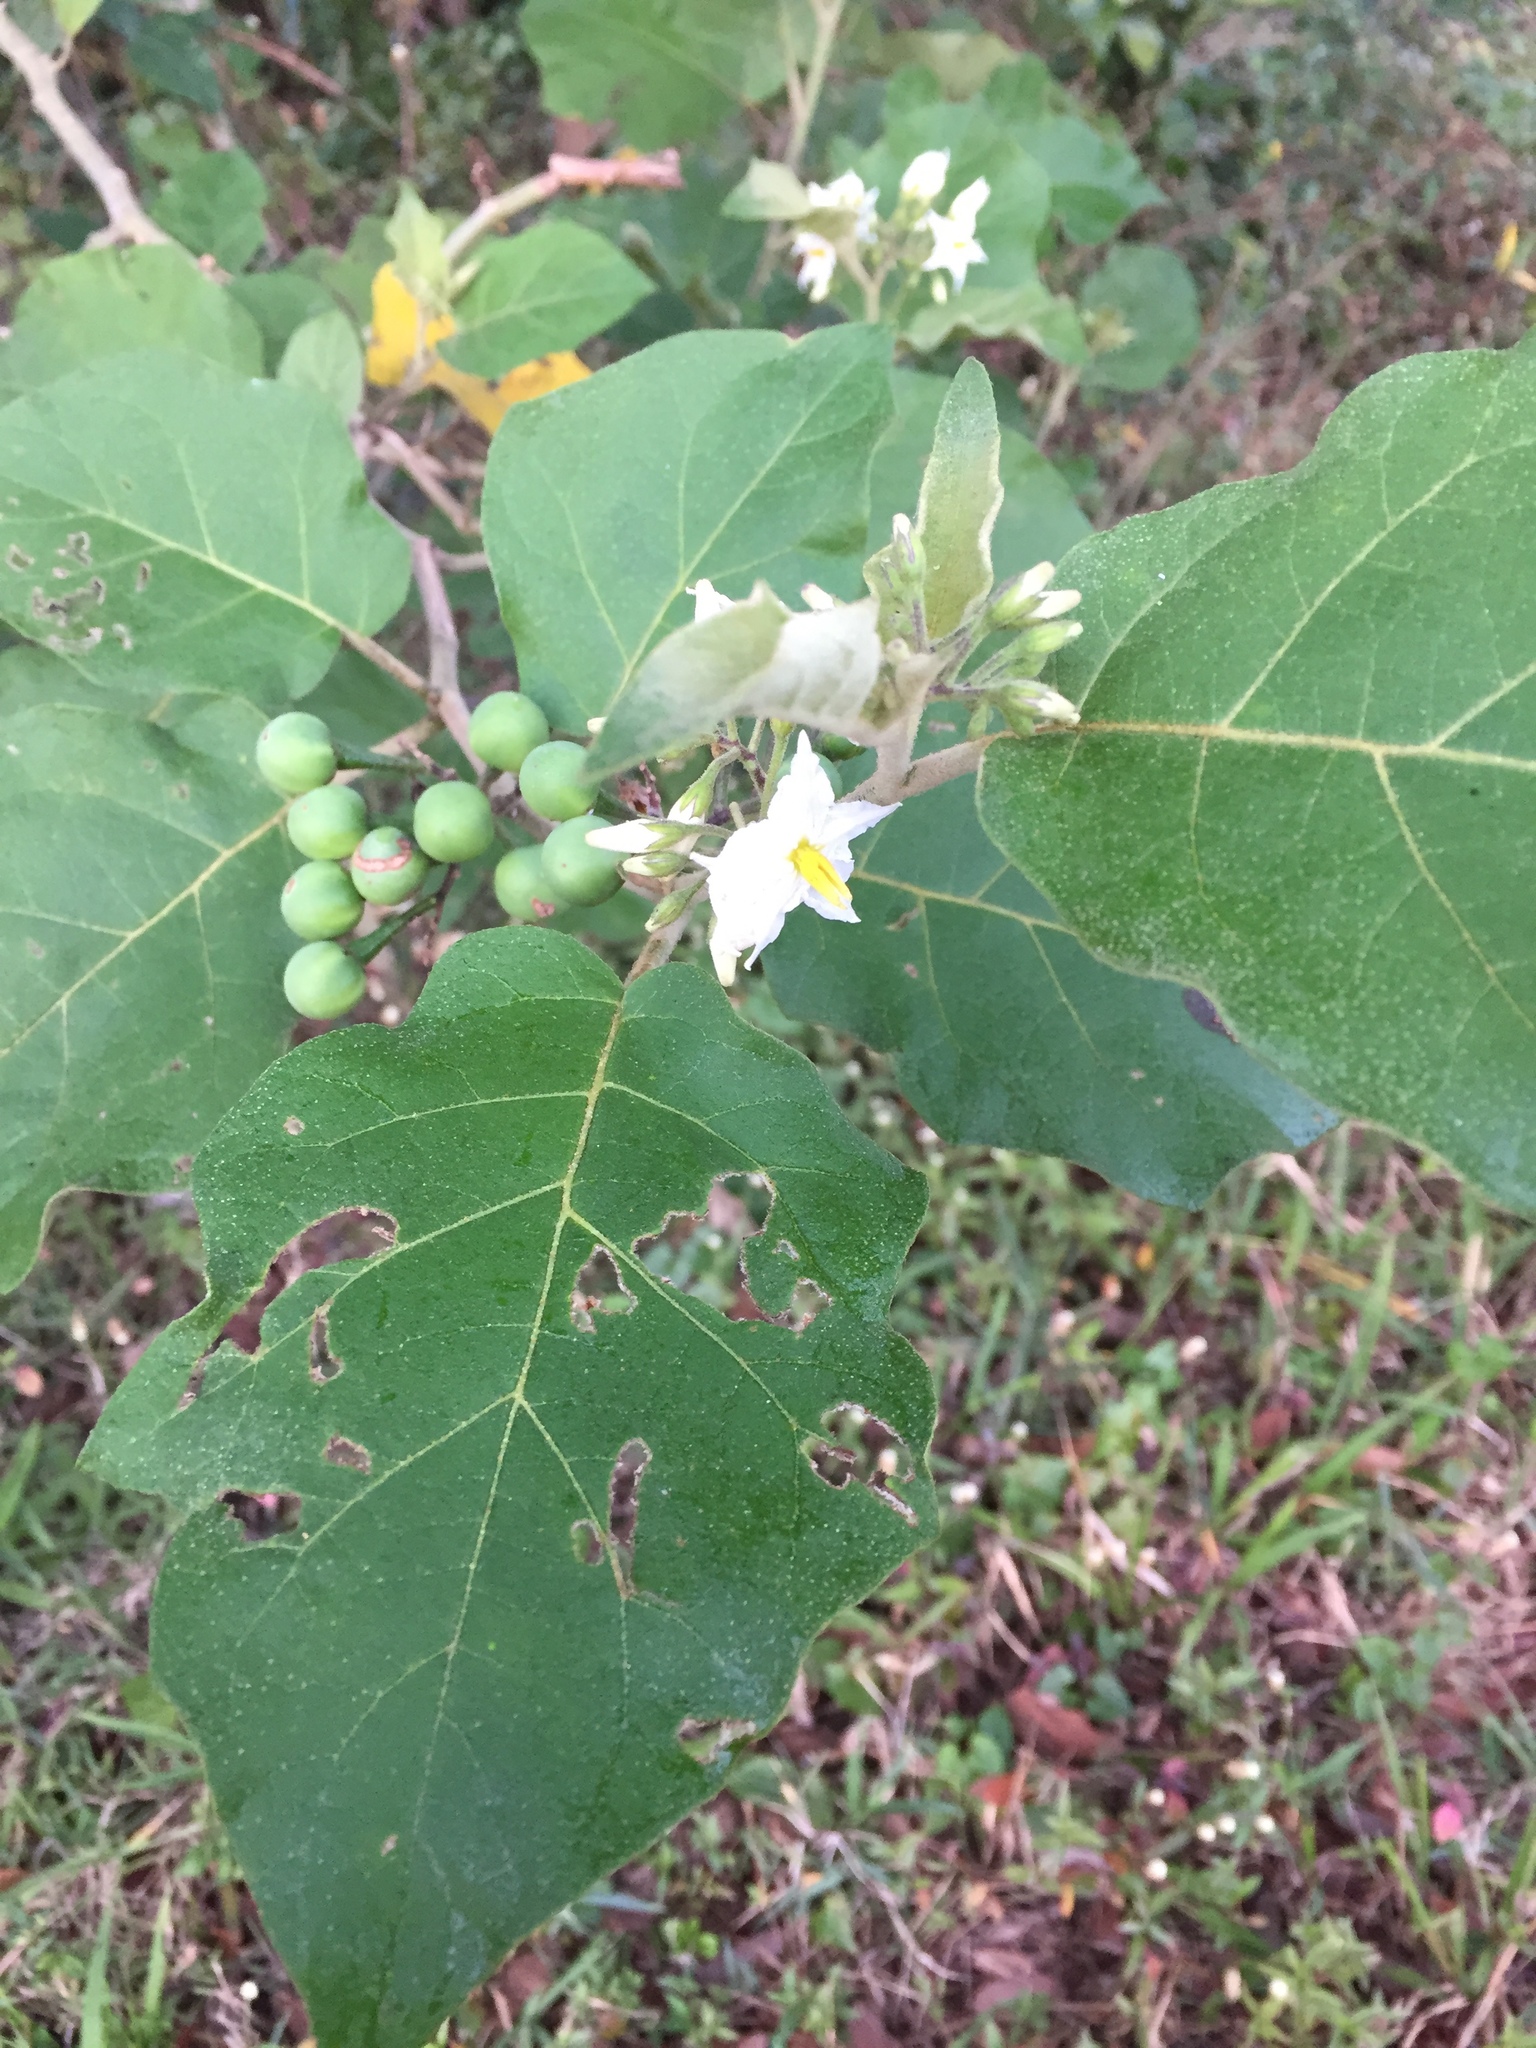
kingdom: Plantae
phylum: Tracheophyta
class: Magnoliopsida
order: Solanales
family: Solanaceae
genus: Solanum
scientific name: Solanum torvum
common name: Turkey berry
